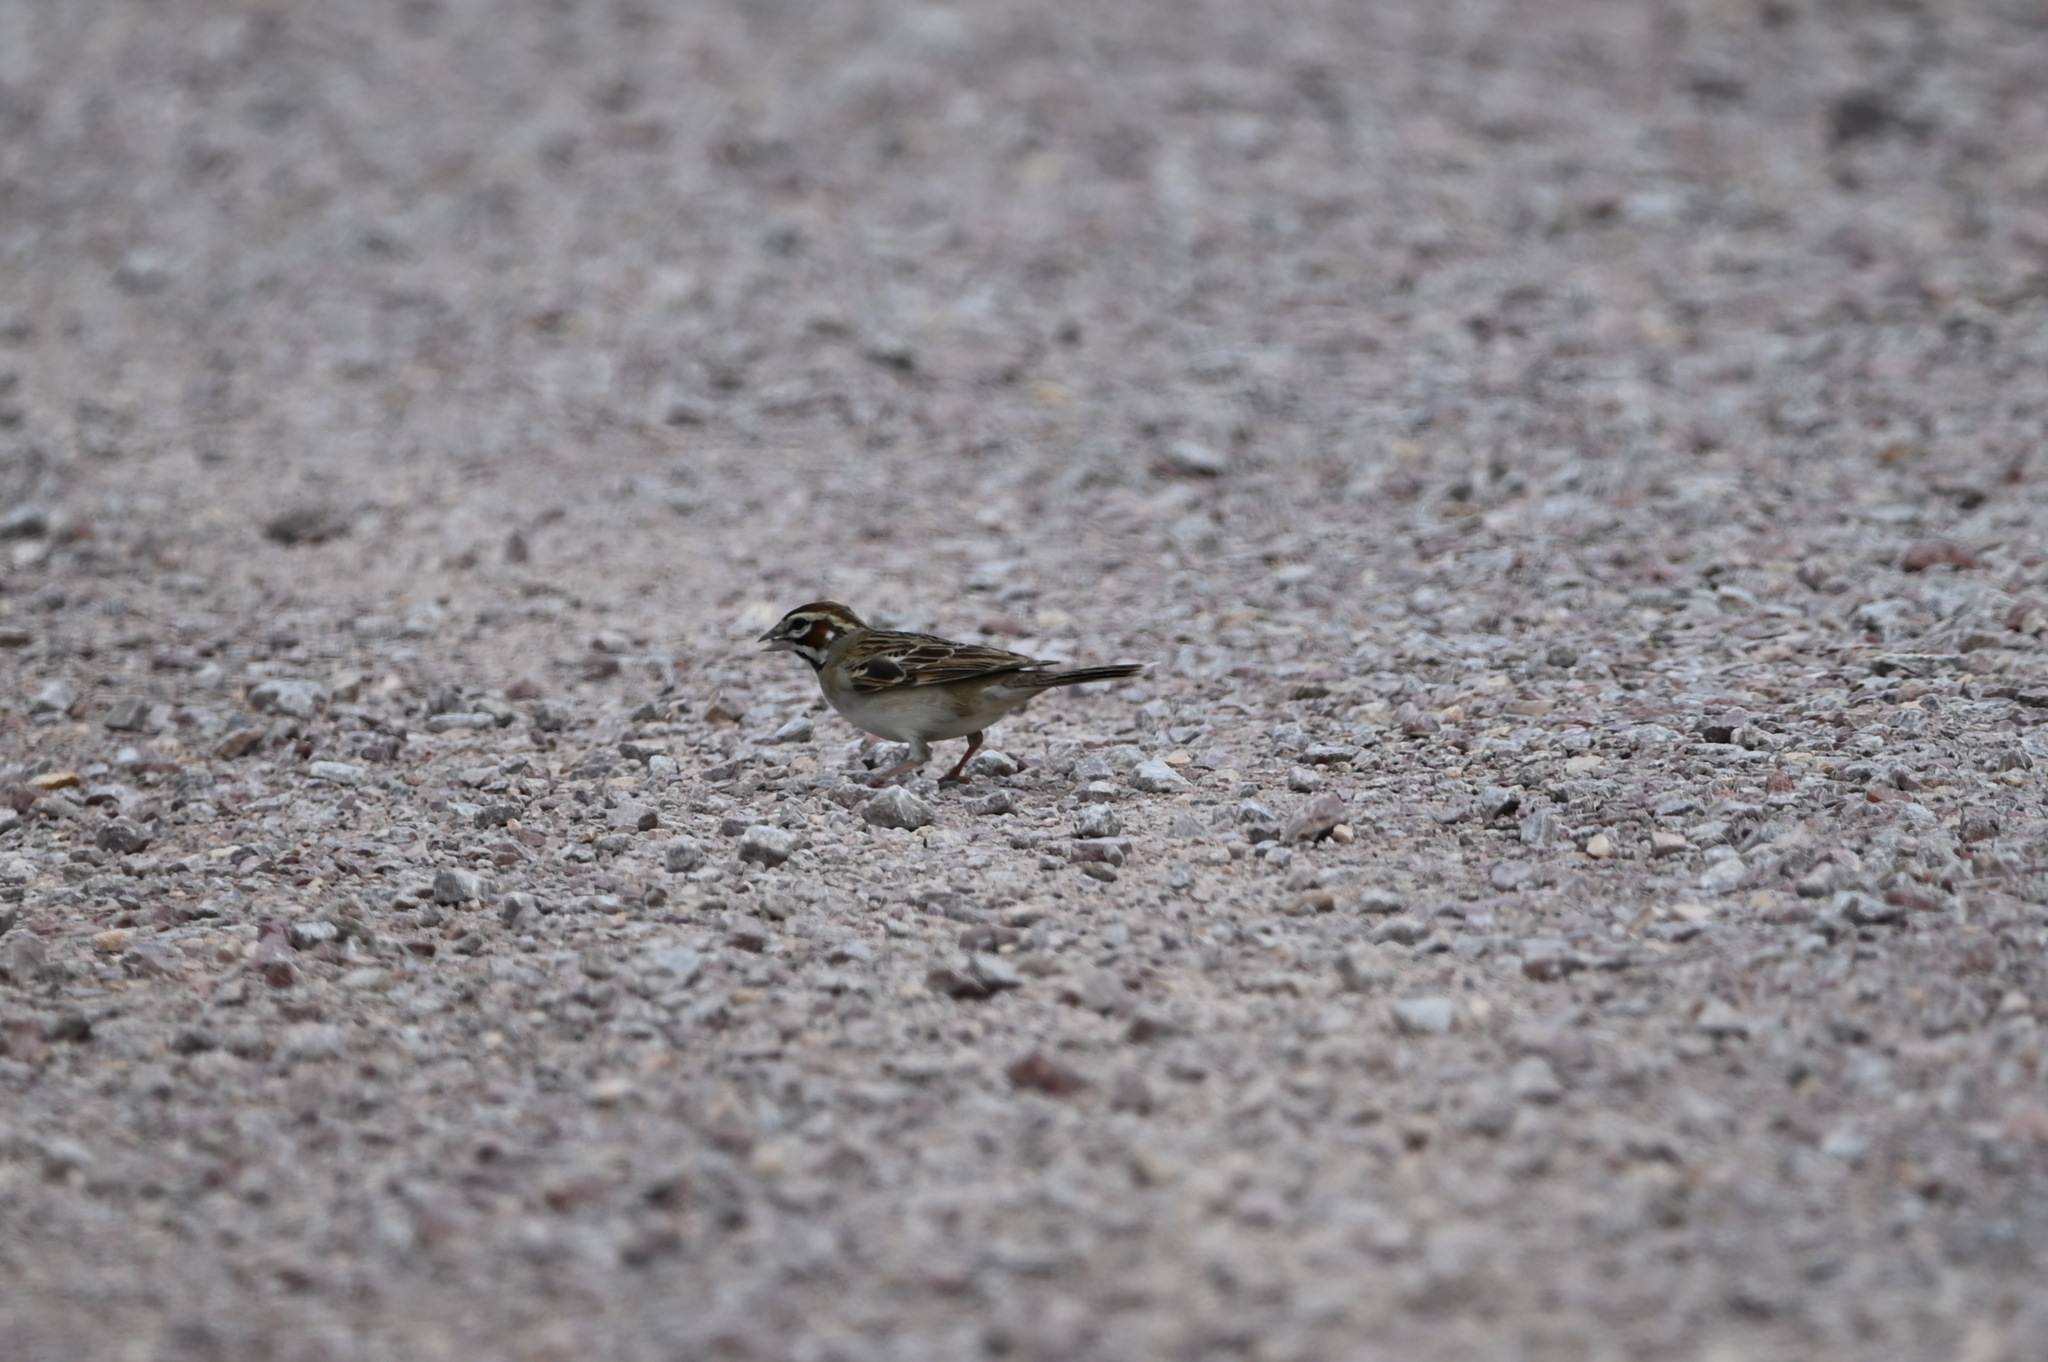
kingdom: Animalia
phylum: Chordata
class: Aves
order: Passeriformes
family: Passerellidae
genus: Chondestes
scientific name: Chondestes grammacus
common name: Lark sparrow
